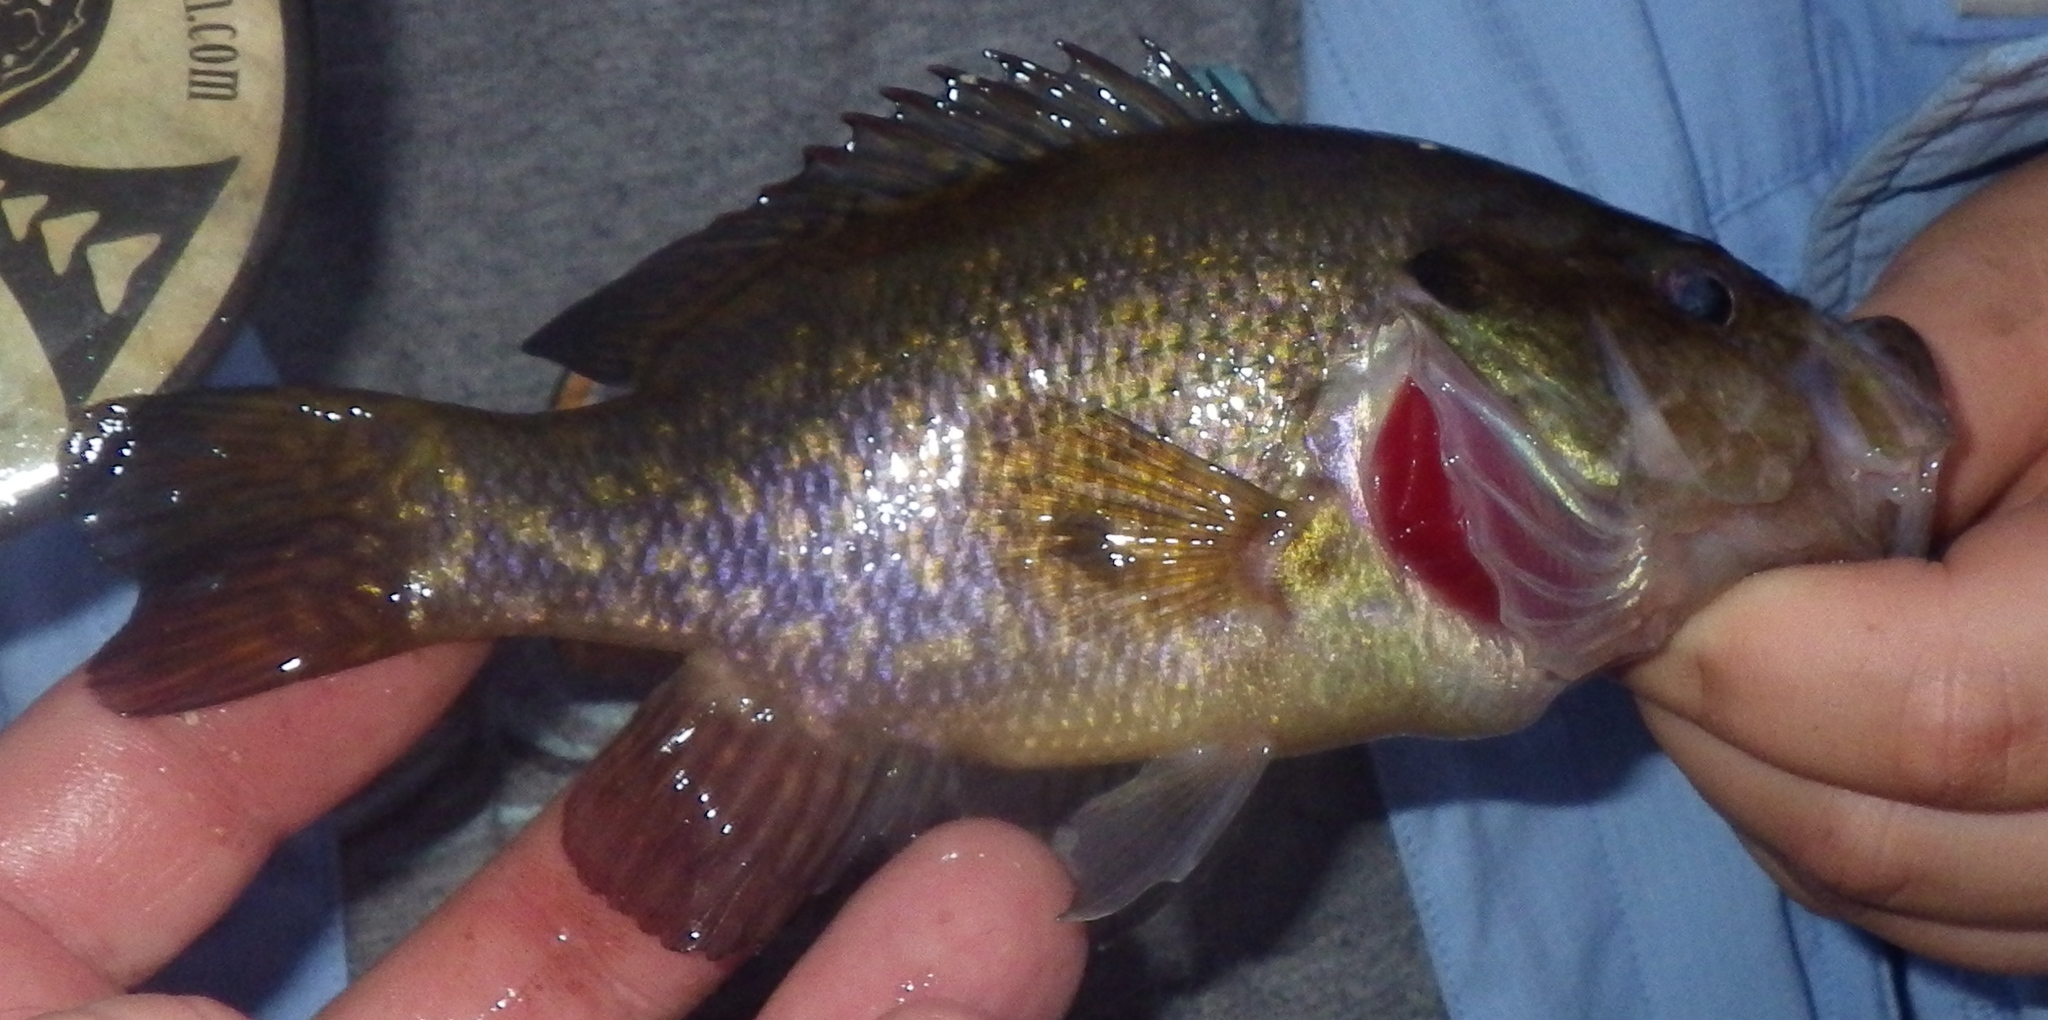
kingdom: Animalia
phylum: Chordata
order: Perciformes
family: Centrarchidae
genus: Lepomis
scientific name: Lepomis gulosus
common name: Warmouth
